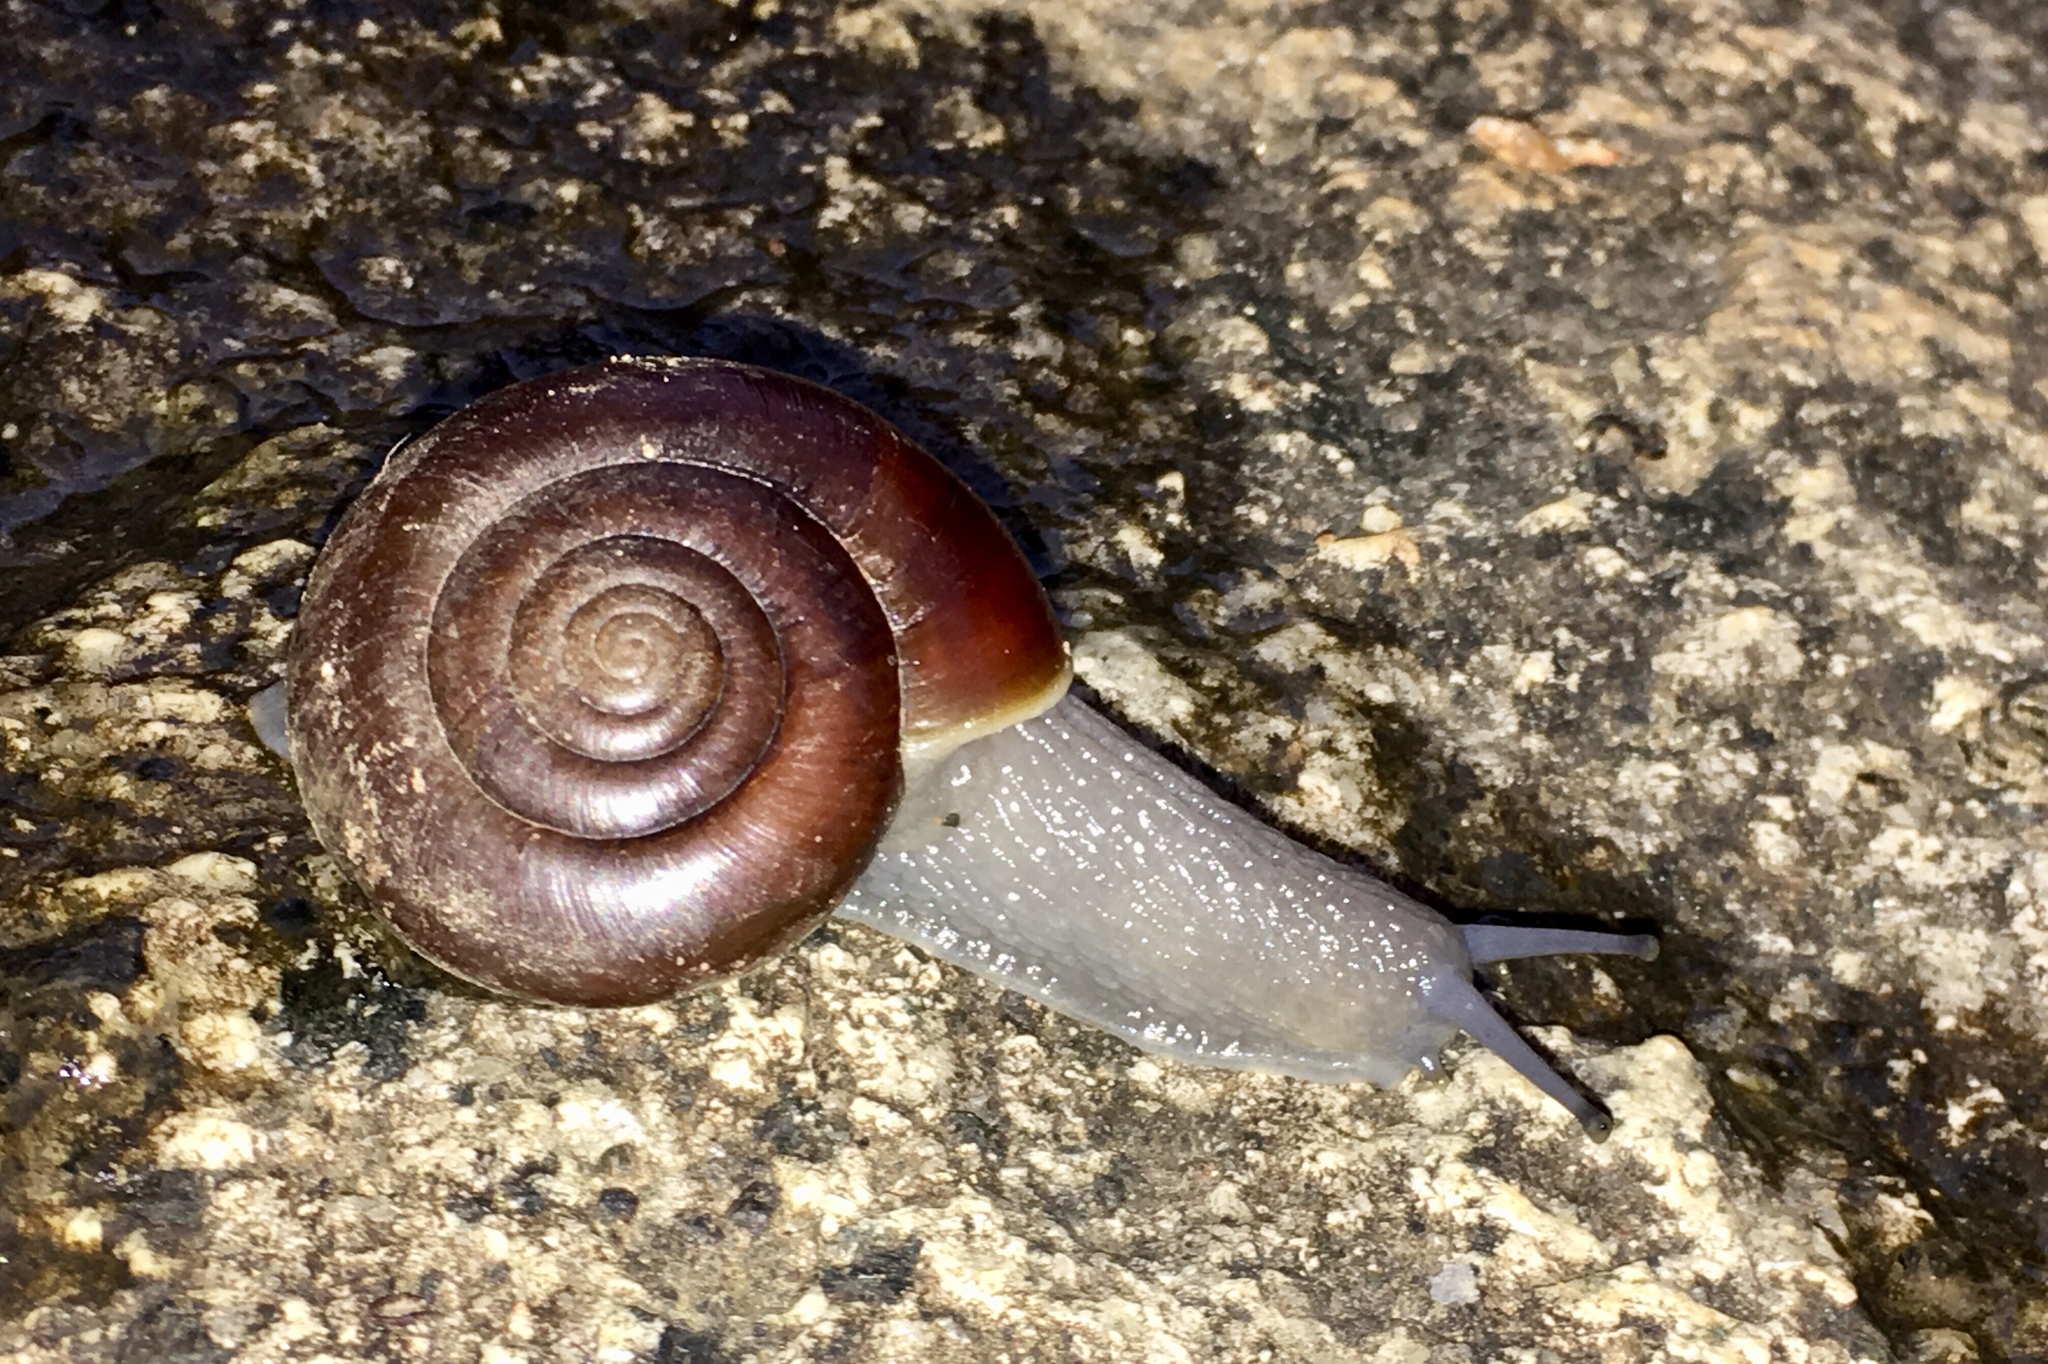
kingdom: Animalia
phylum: Mollusca
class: Gastropoda
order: Stylommatophora
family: Megomphicidae
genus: Glyptostoma
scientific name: Glyptostoma newberryanum
